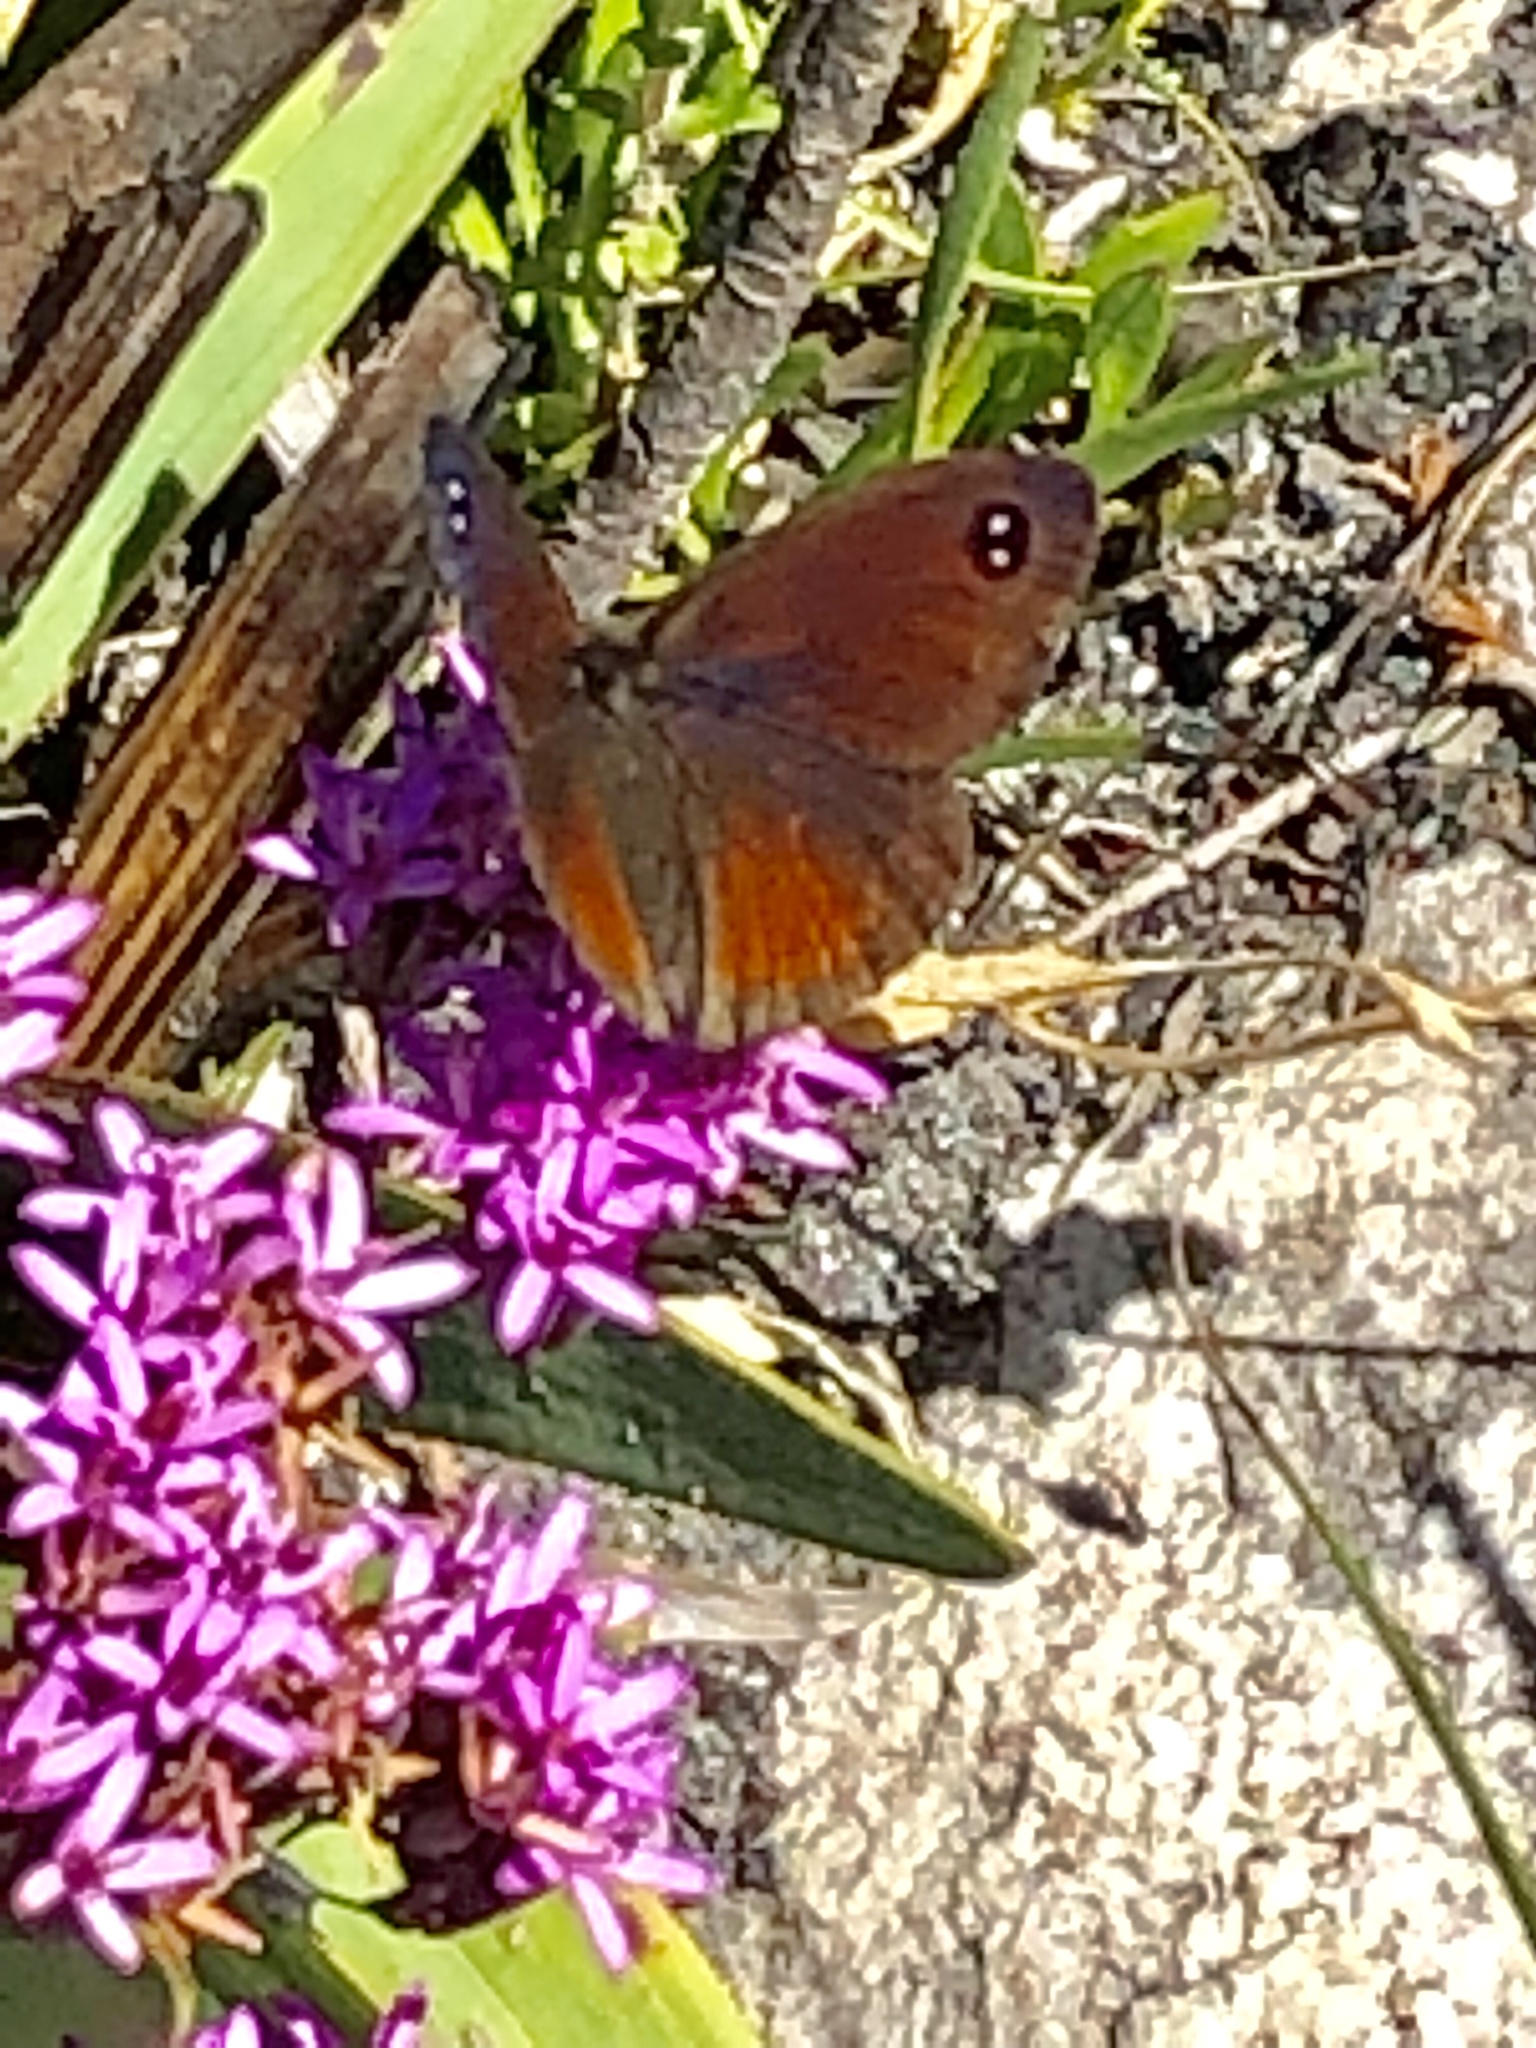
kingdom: Animalia
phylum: Arthropoda
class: Insecta
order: Lepidoptera
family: Nymphalidae
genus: Pseudonympha
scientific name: Pseudonympha hippia
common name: Table mountain brown
